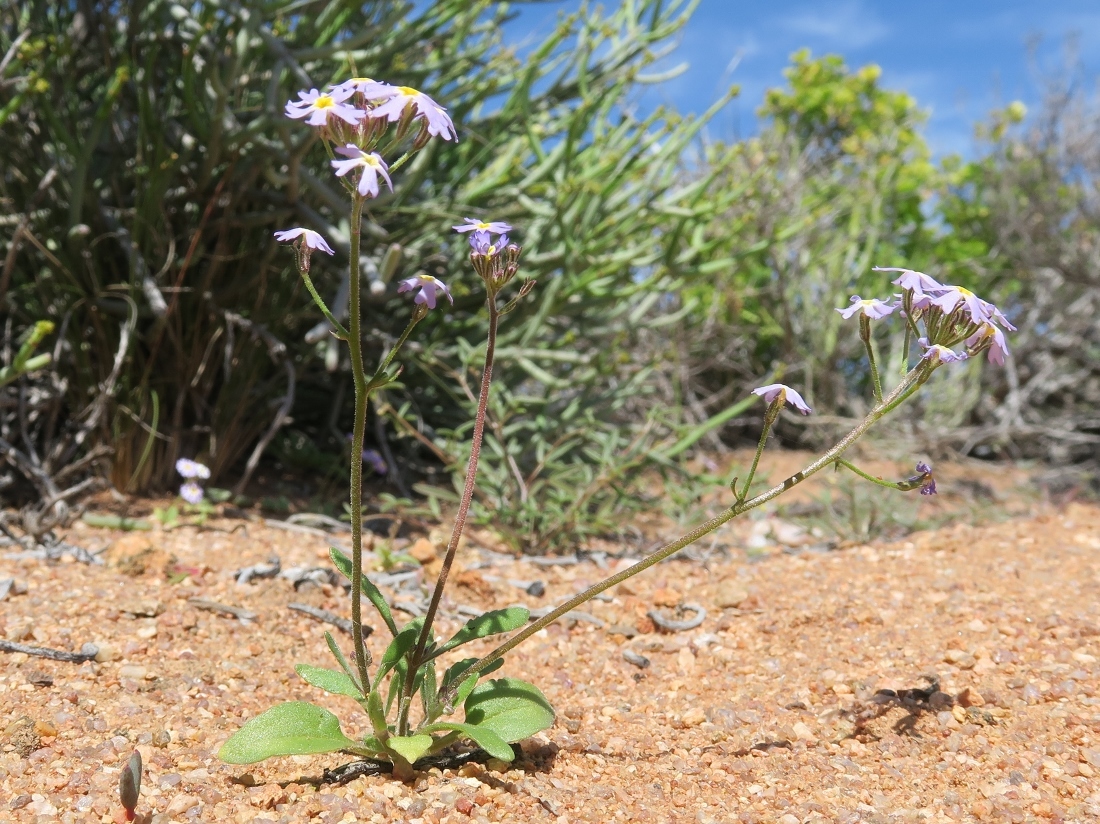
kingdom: Plantae
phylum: Tracheophyta
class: Magnoliopsida
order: Lamiales
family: Scrophulariaceae
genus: Manulea
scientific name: Manulea silenoides
